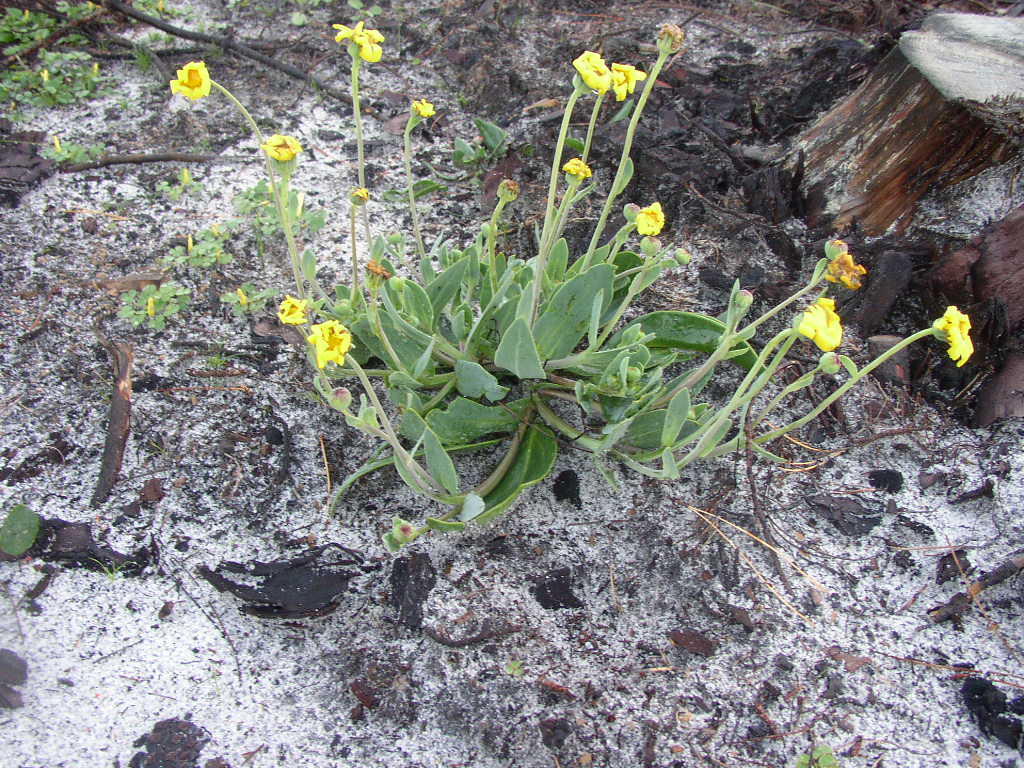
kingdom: Plantae
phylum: Tracheophyta
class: Magnoliopsida
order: Asterales
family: Asteraceae
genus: Othonna
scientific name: Othonna bulbosa
